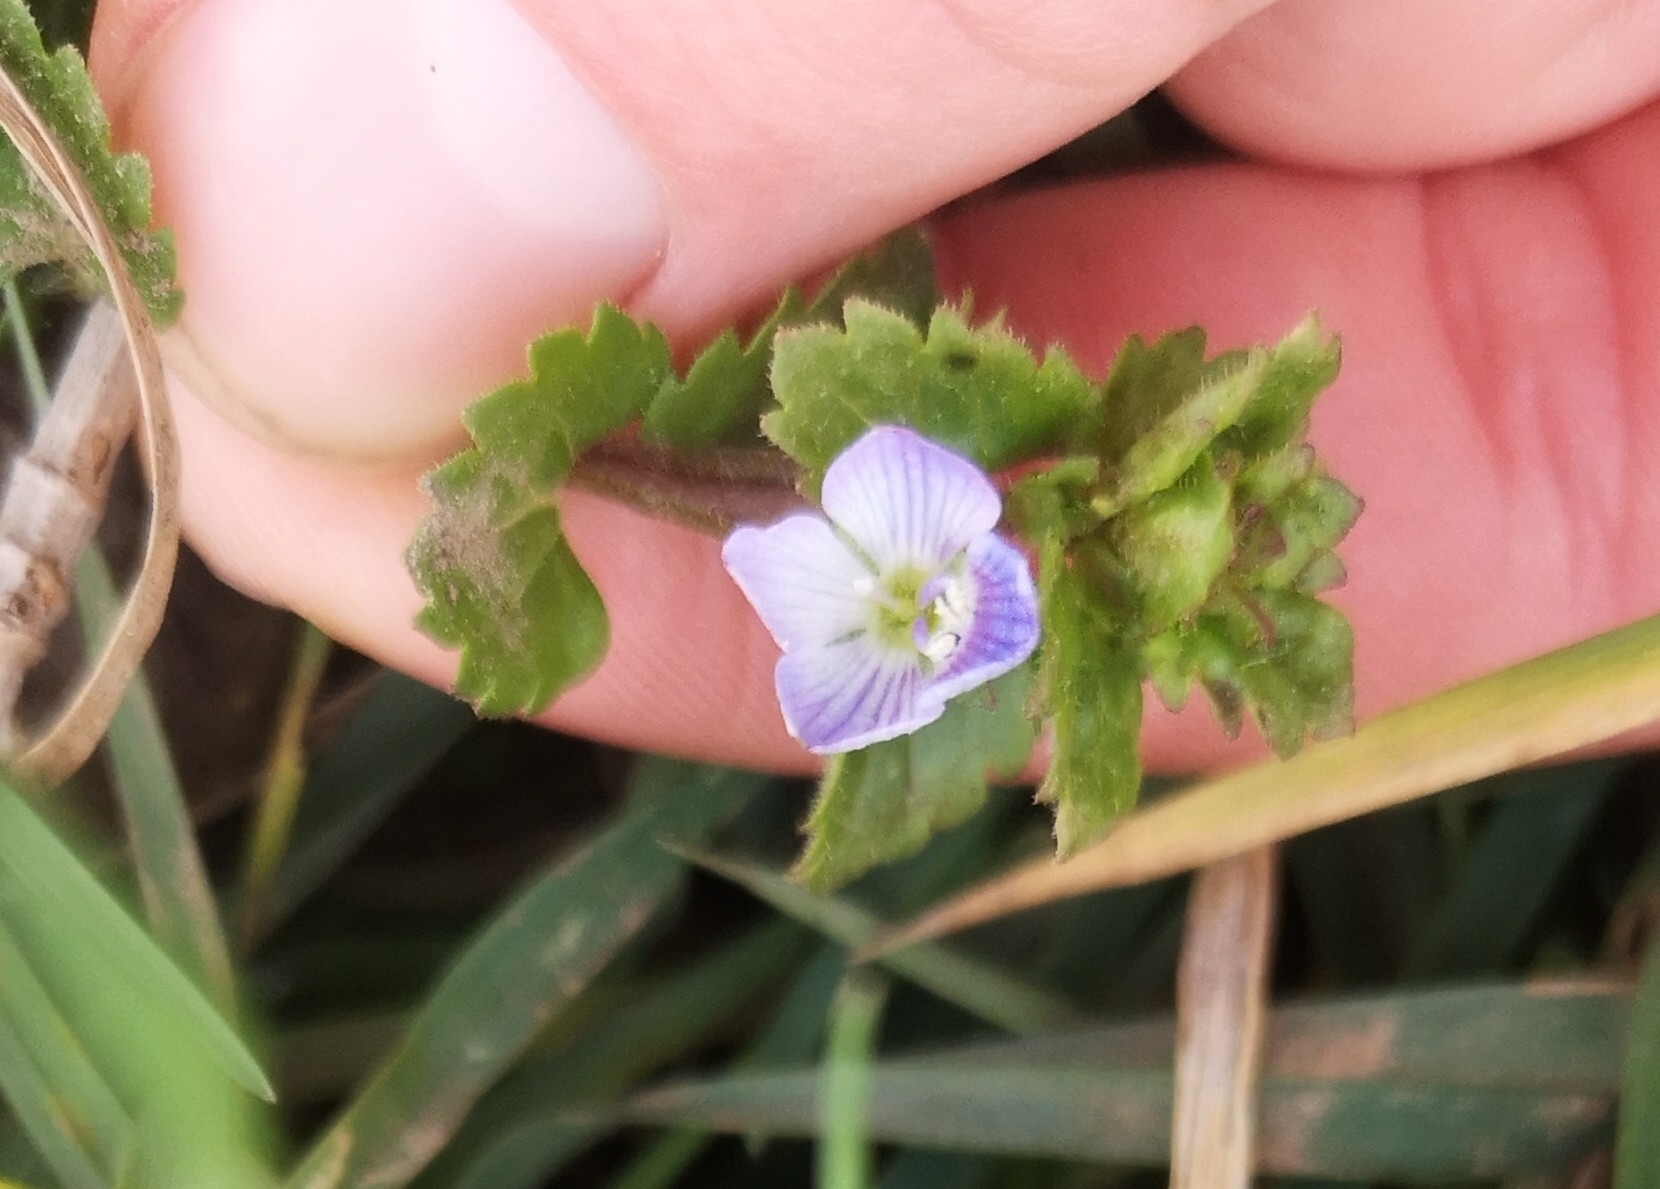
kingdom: Plantae
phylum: Tracheophyta
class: Magnoliopsida
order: Lamiales
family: Plantaginaceae
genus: Veronica
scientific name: Veronica persica
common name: Common field-speedwell
